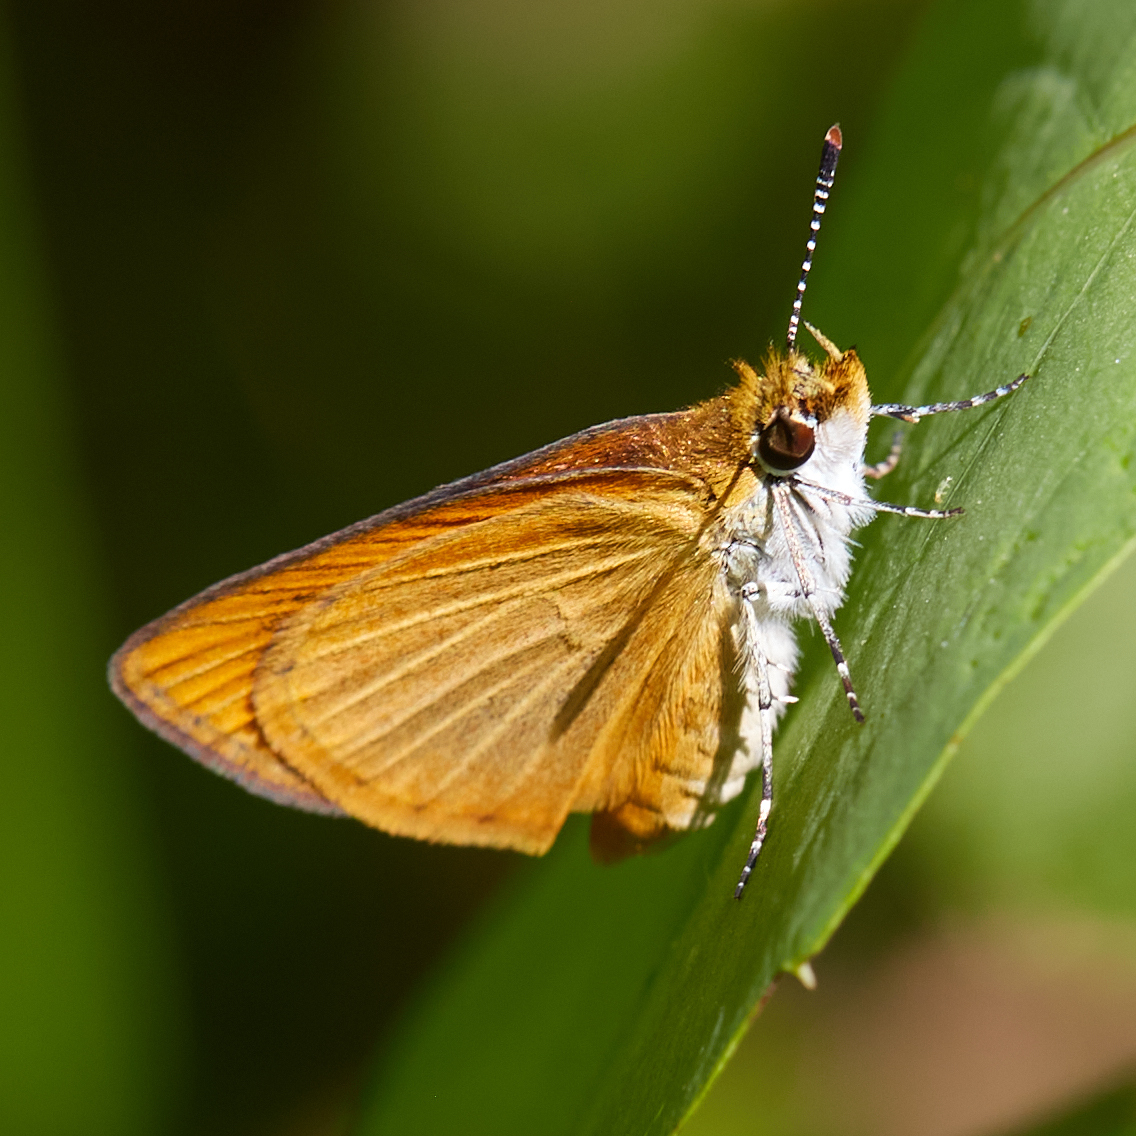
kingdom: Animalia
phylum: Arthropoda
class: Insecta
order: Lepidoptera
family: Hesperiidae
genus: Ancyloxypha
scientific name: Ancyloxypha numitor
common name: Least skipper
